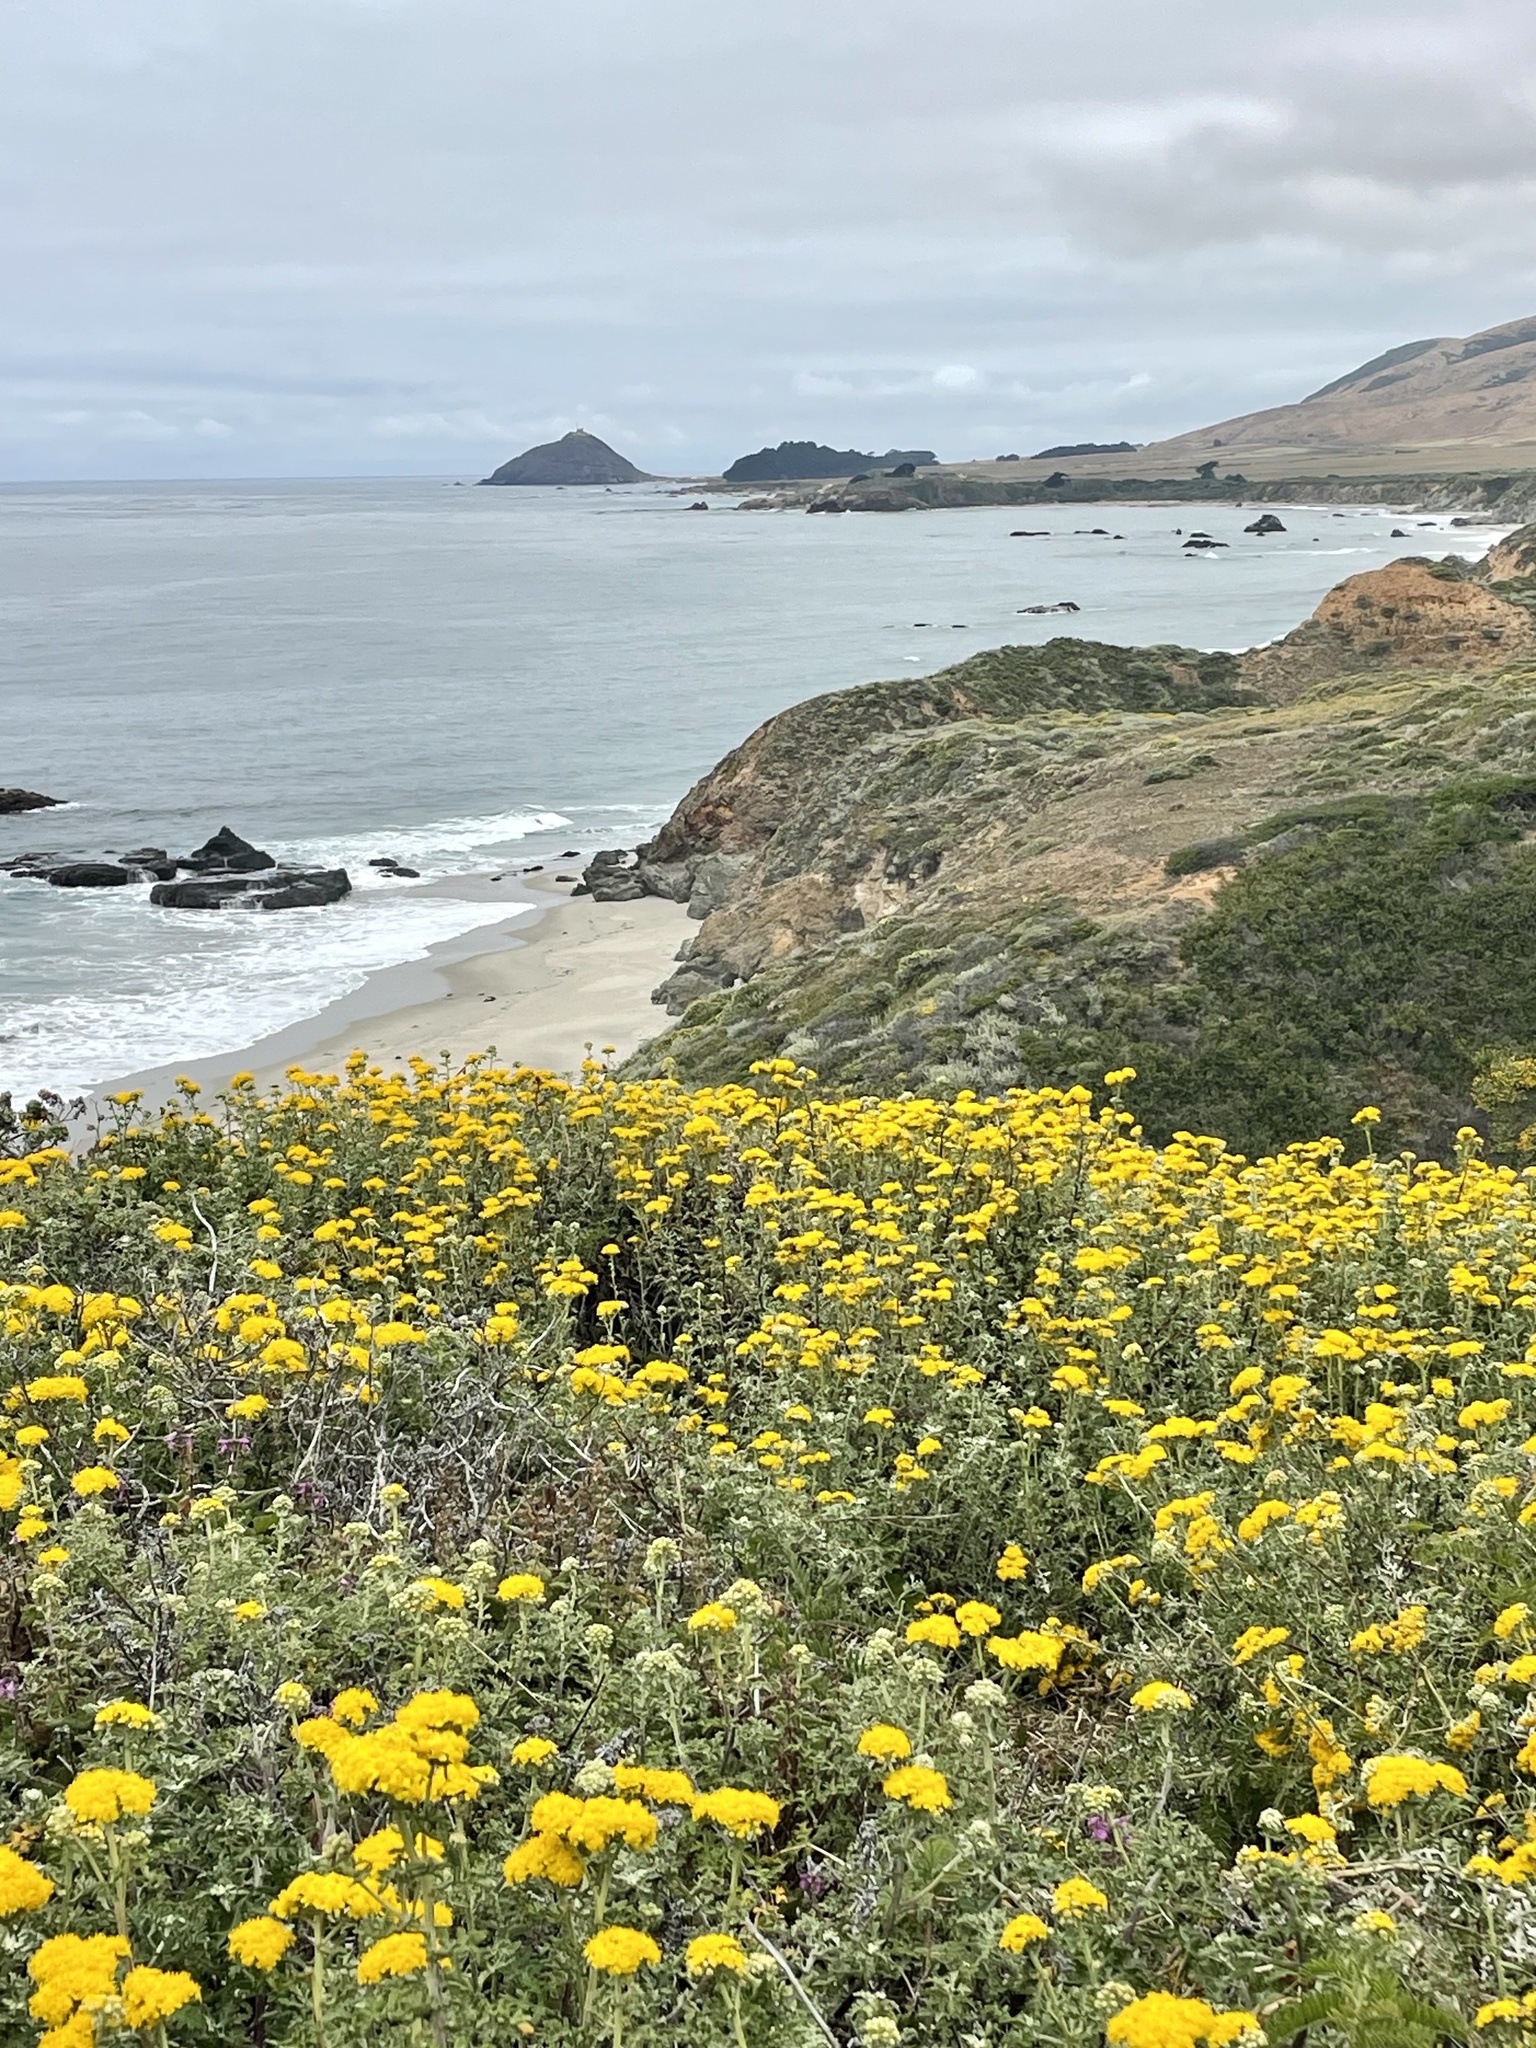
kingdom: Plantae
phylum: Tracheophyta
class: Magnoliopsida
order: Asterales
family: Asteraceae
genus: Eriophyllum
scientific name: Eriophyllum staechadifolium
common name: Lizardtail
